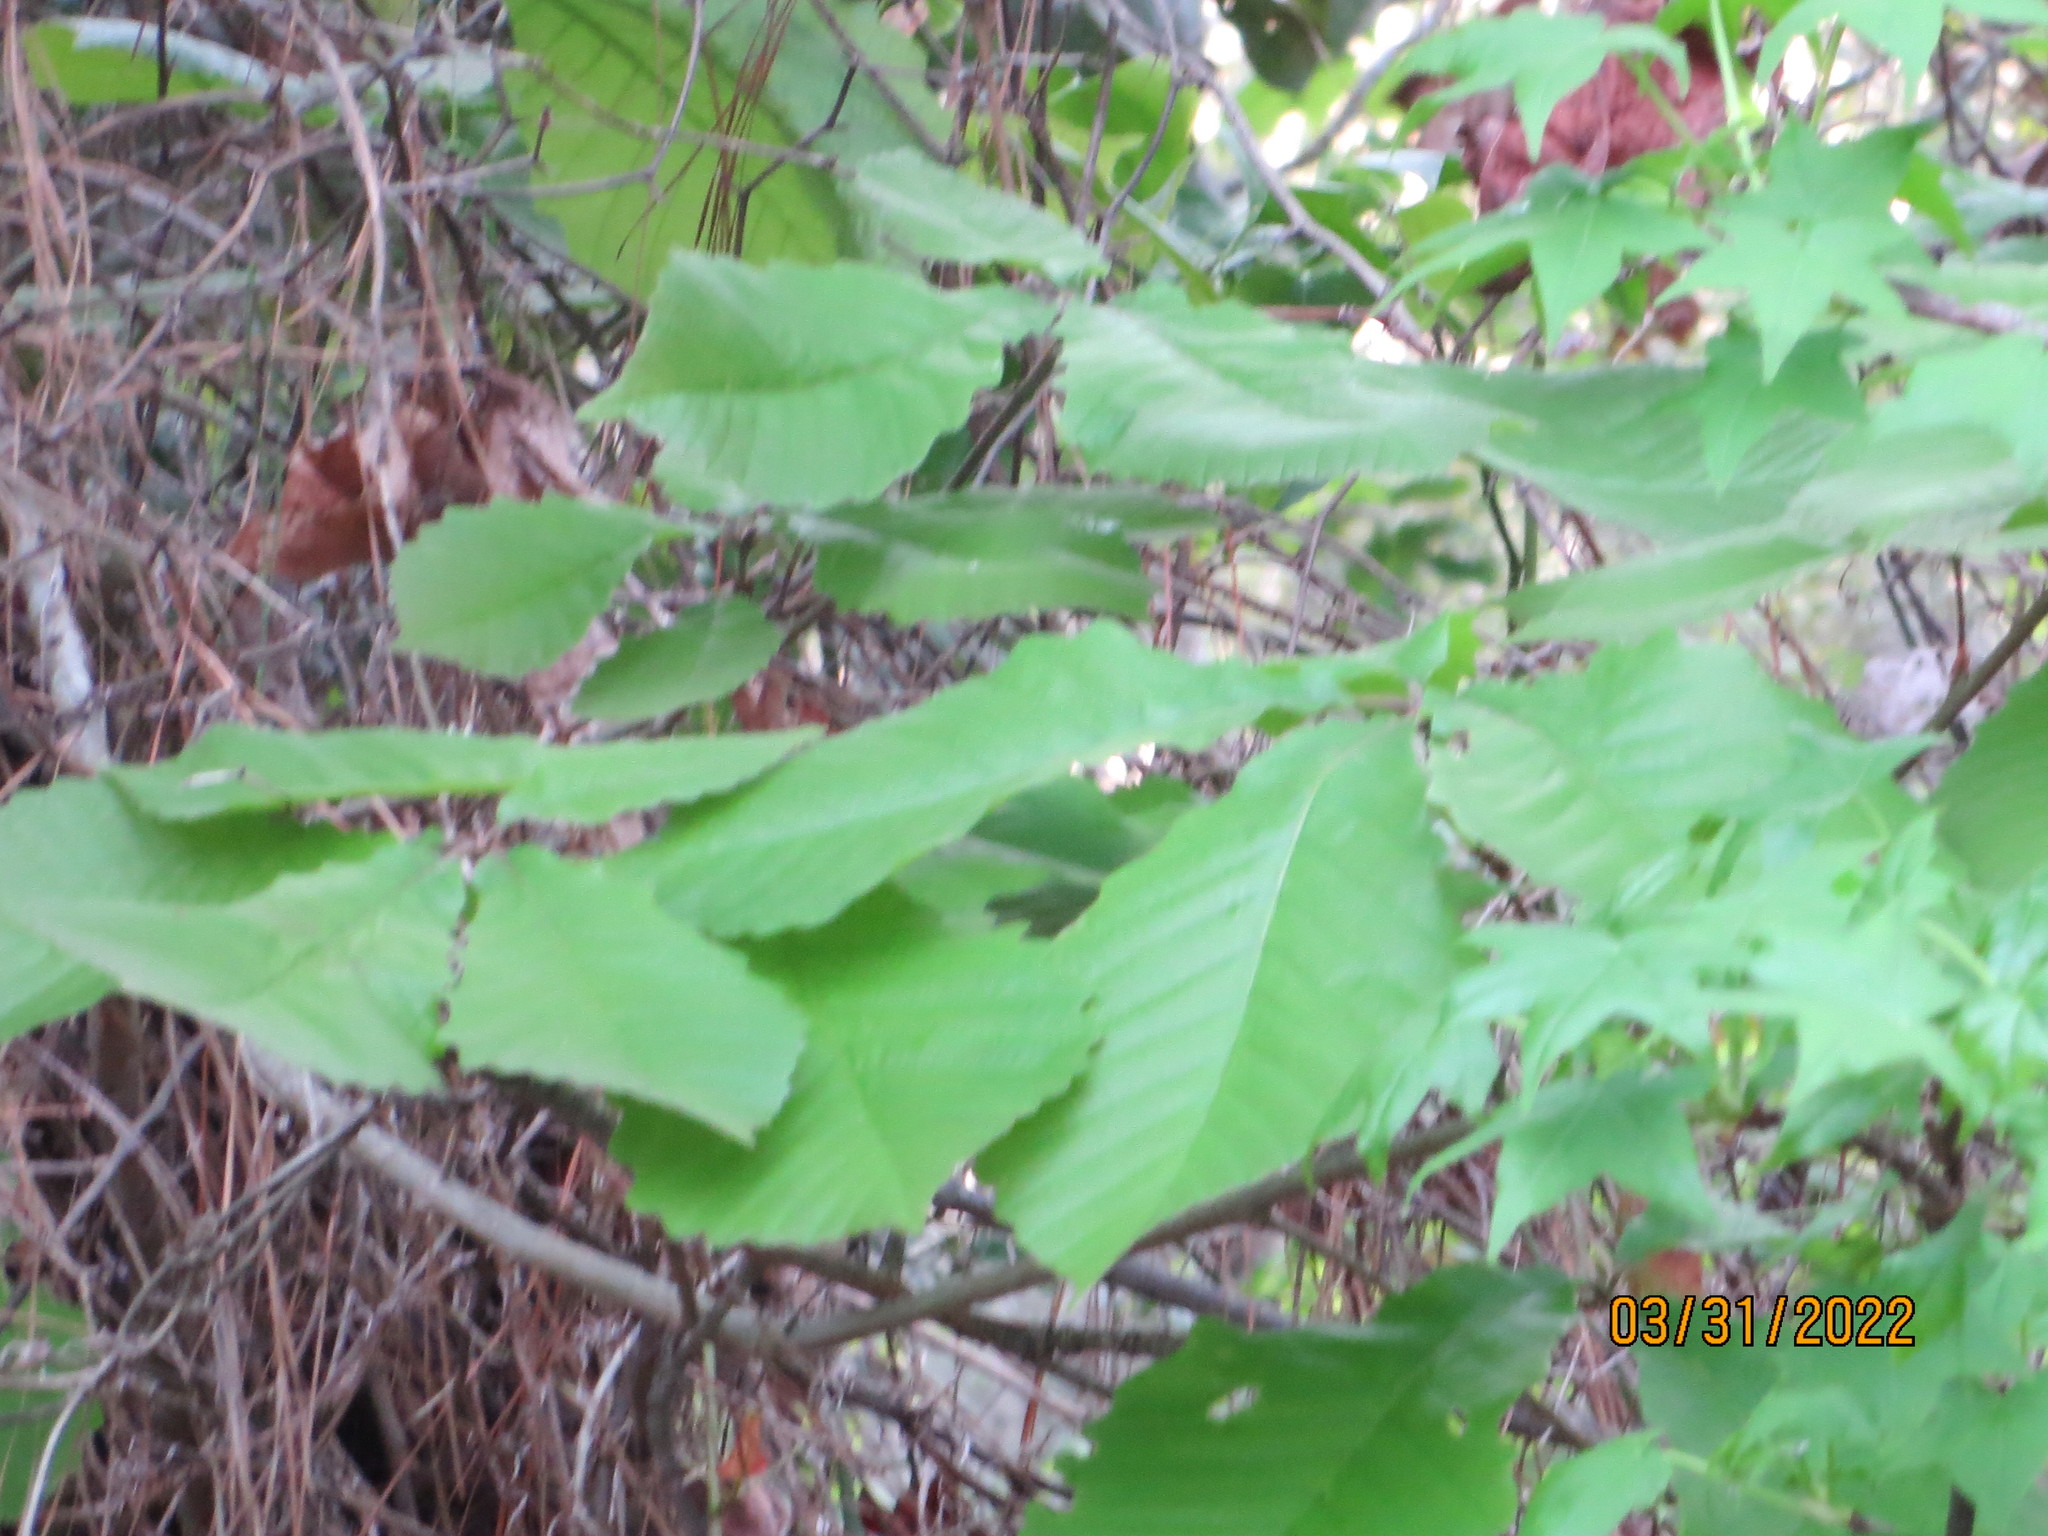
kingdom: Plantae
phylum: Tracheophyta
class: Magnoliopsida
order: Fagales
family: Fagaceae
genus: Quercus
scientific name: Quercus michauxii
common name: Swamp chestnut oak
